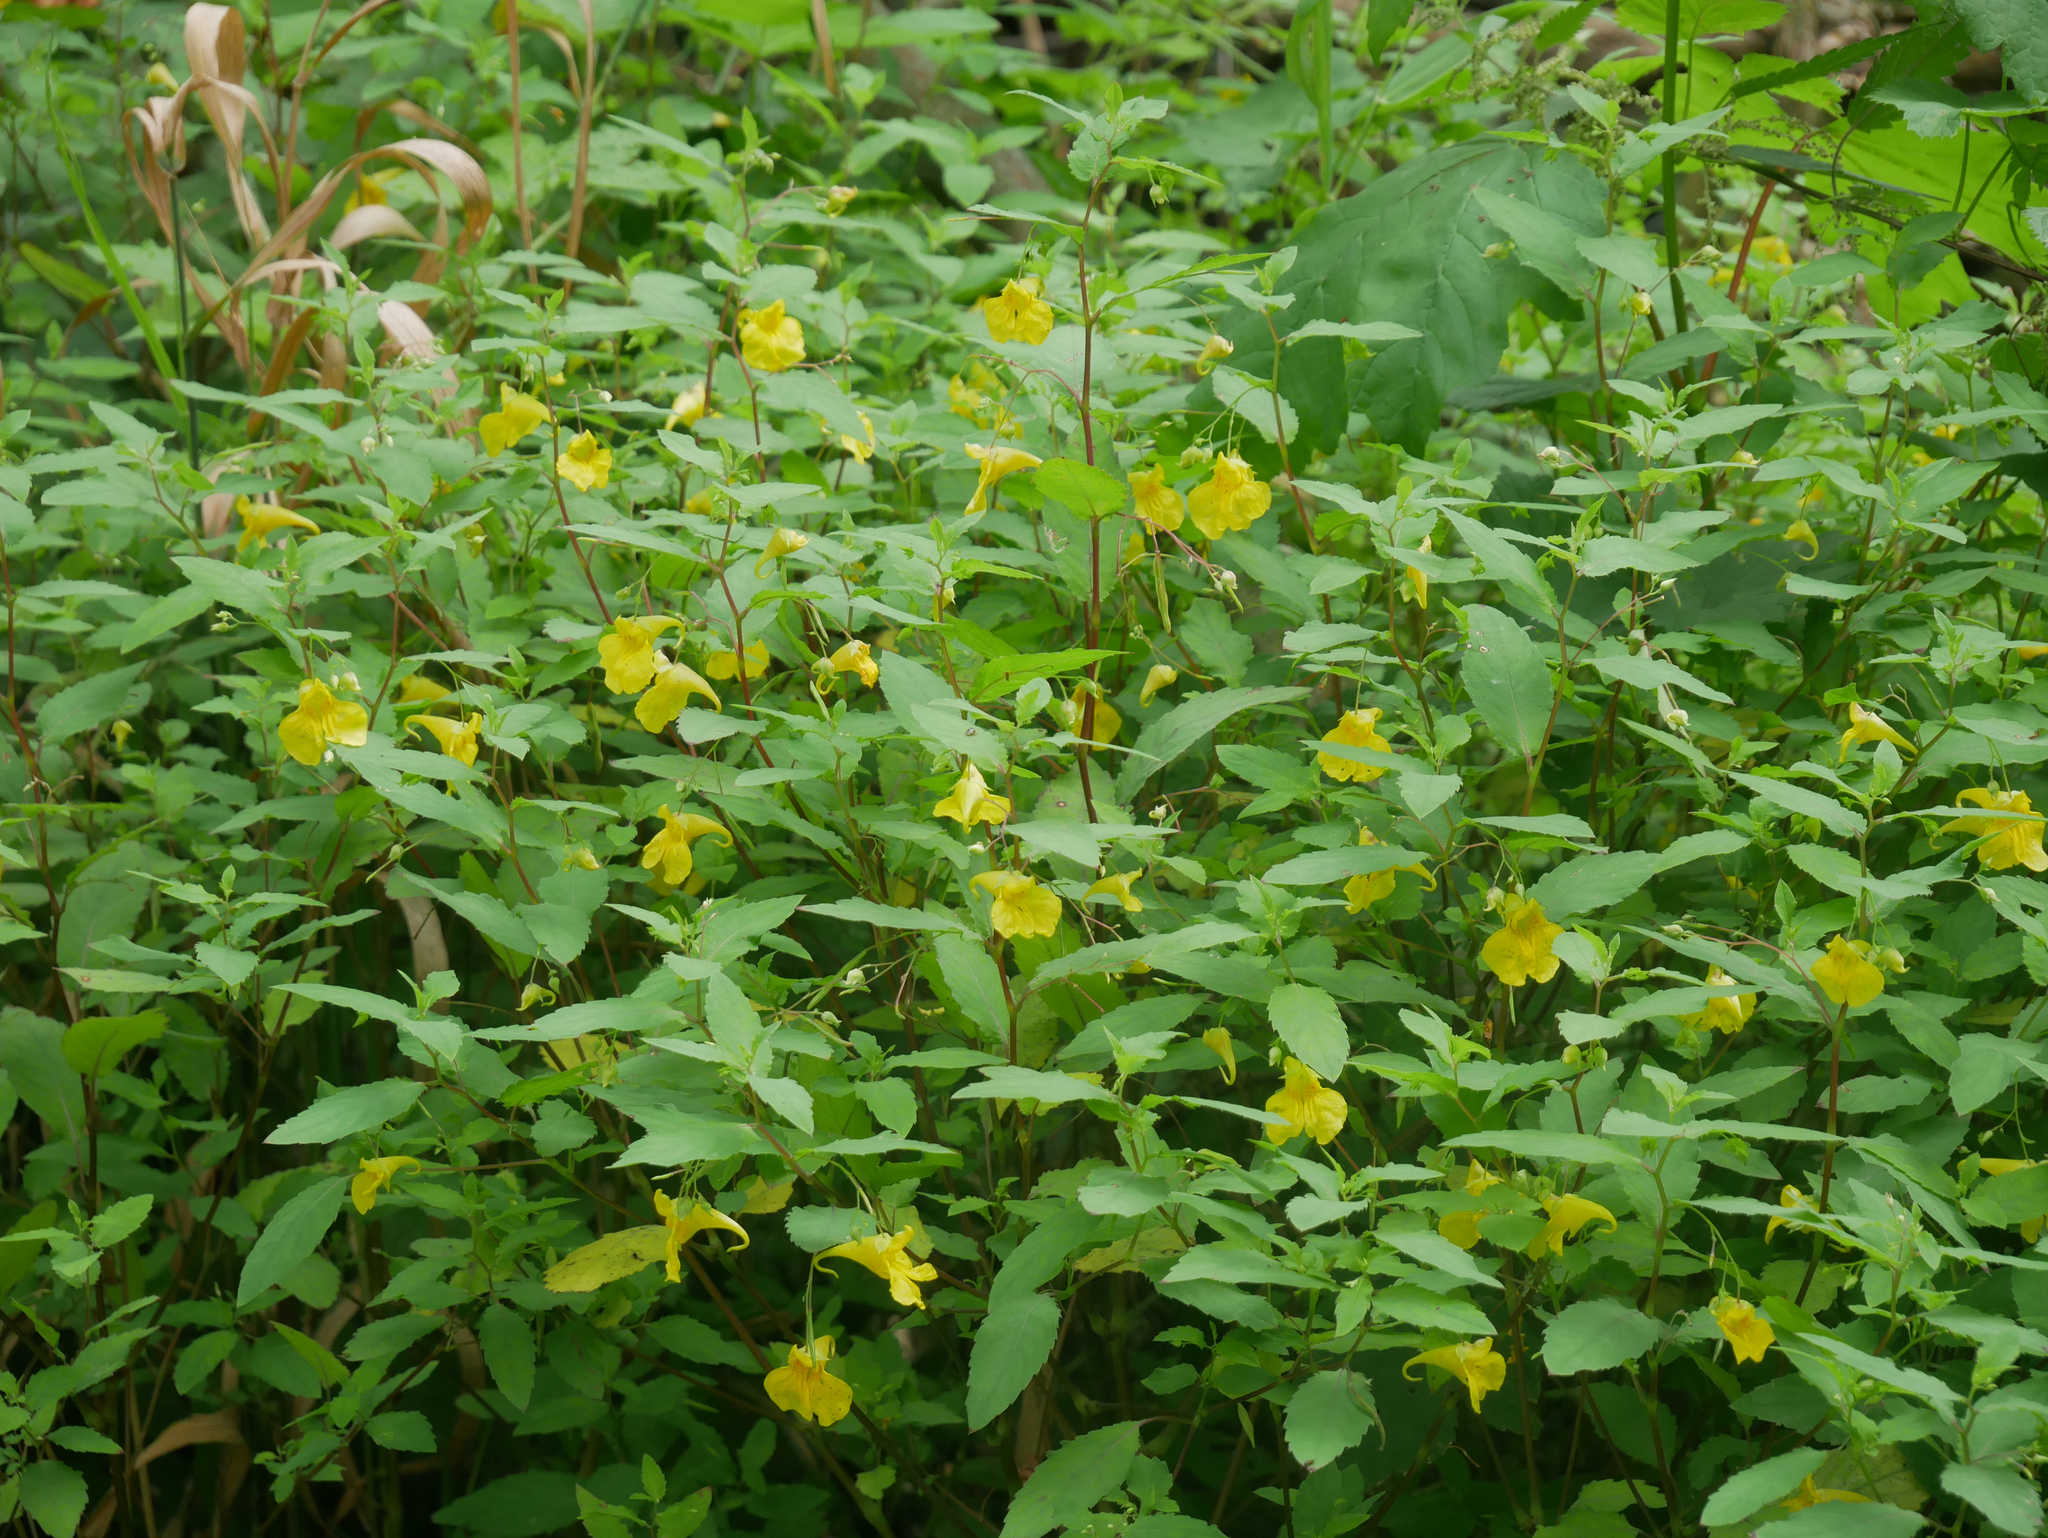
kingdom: Plantae
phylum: Tracheophyta
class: Magnoliopsida
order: Ericales
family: Balsaminaceae
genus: Impatiens
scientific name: Impatiens noli-tangere
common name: Touch-me-not balsam
